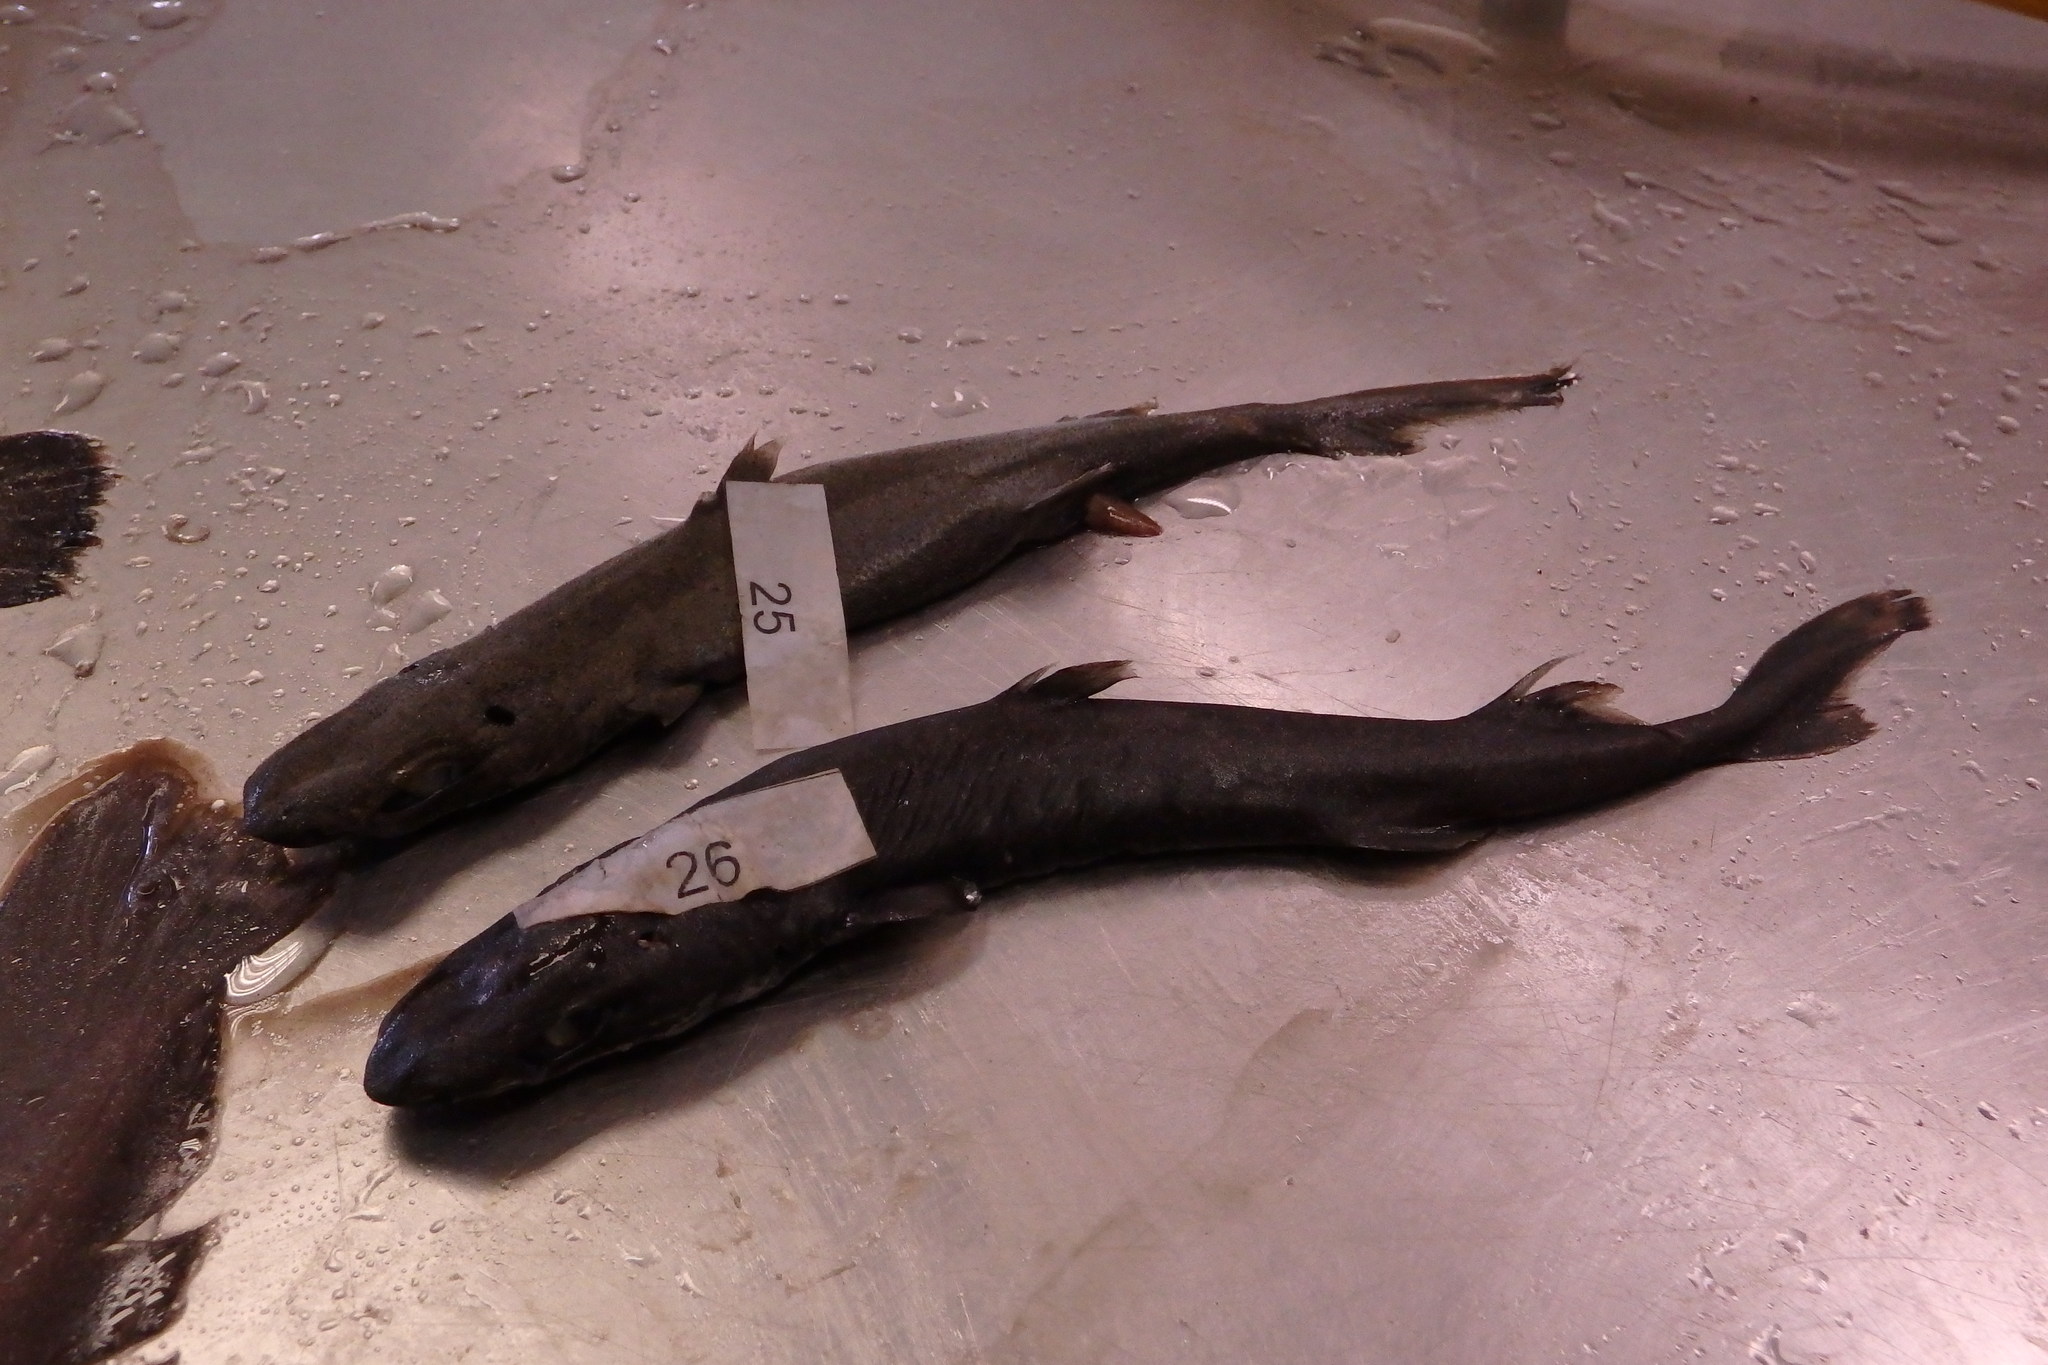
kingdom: Animalia
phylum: Chordata
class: Elasmobranchii
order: Squaliformes
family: Etmopteridae
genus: Etmopterus
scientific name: Etmopterus spinax
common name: Velvet belly
